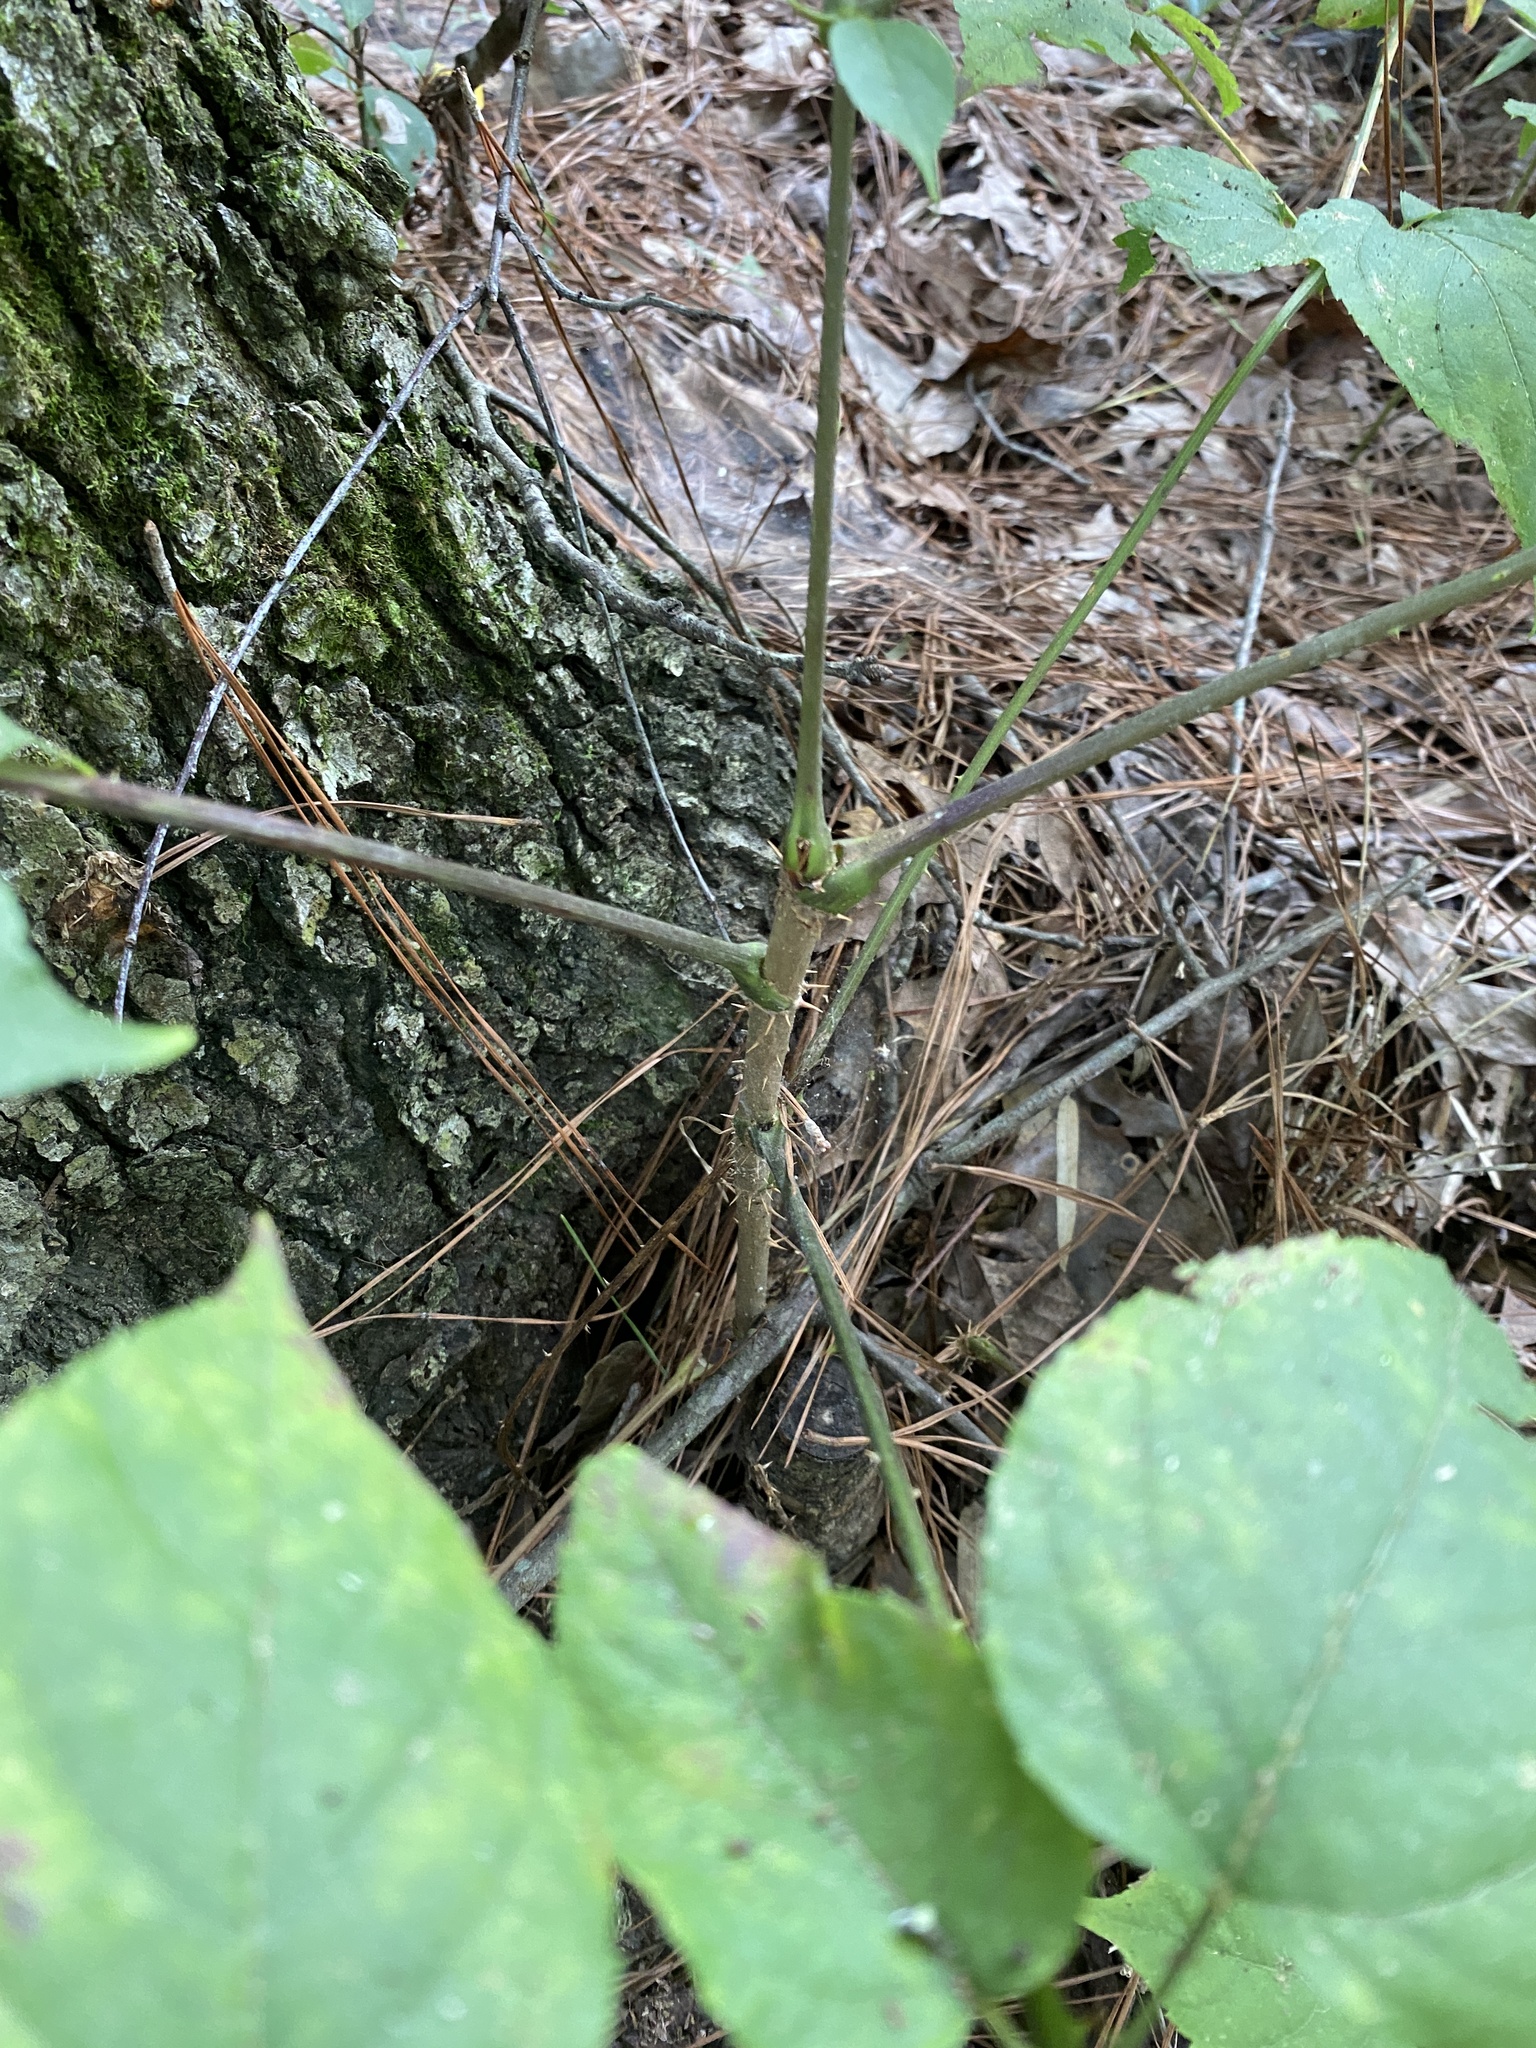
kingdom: Plantae
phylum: Tracheophyta
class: Magnoliopsida
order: Apiales
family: Araliaceae
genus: Aralia
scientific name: Aralia spinosa
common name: Hercules'-club
